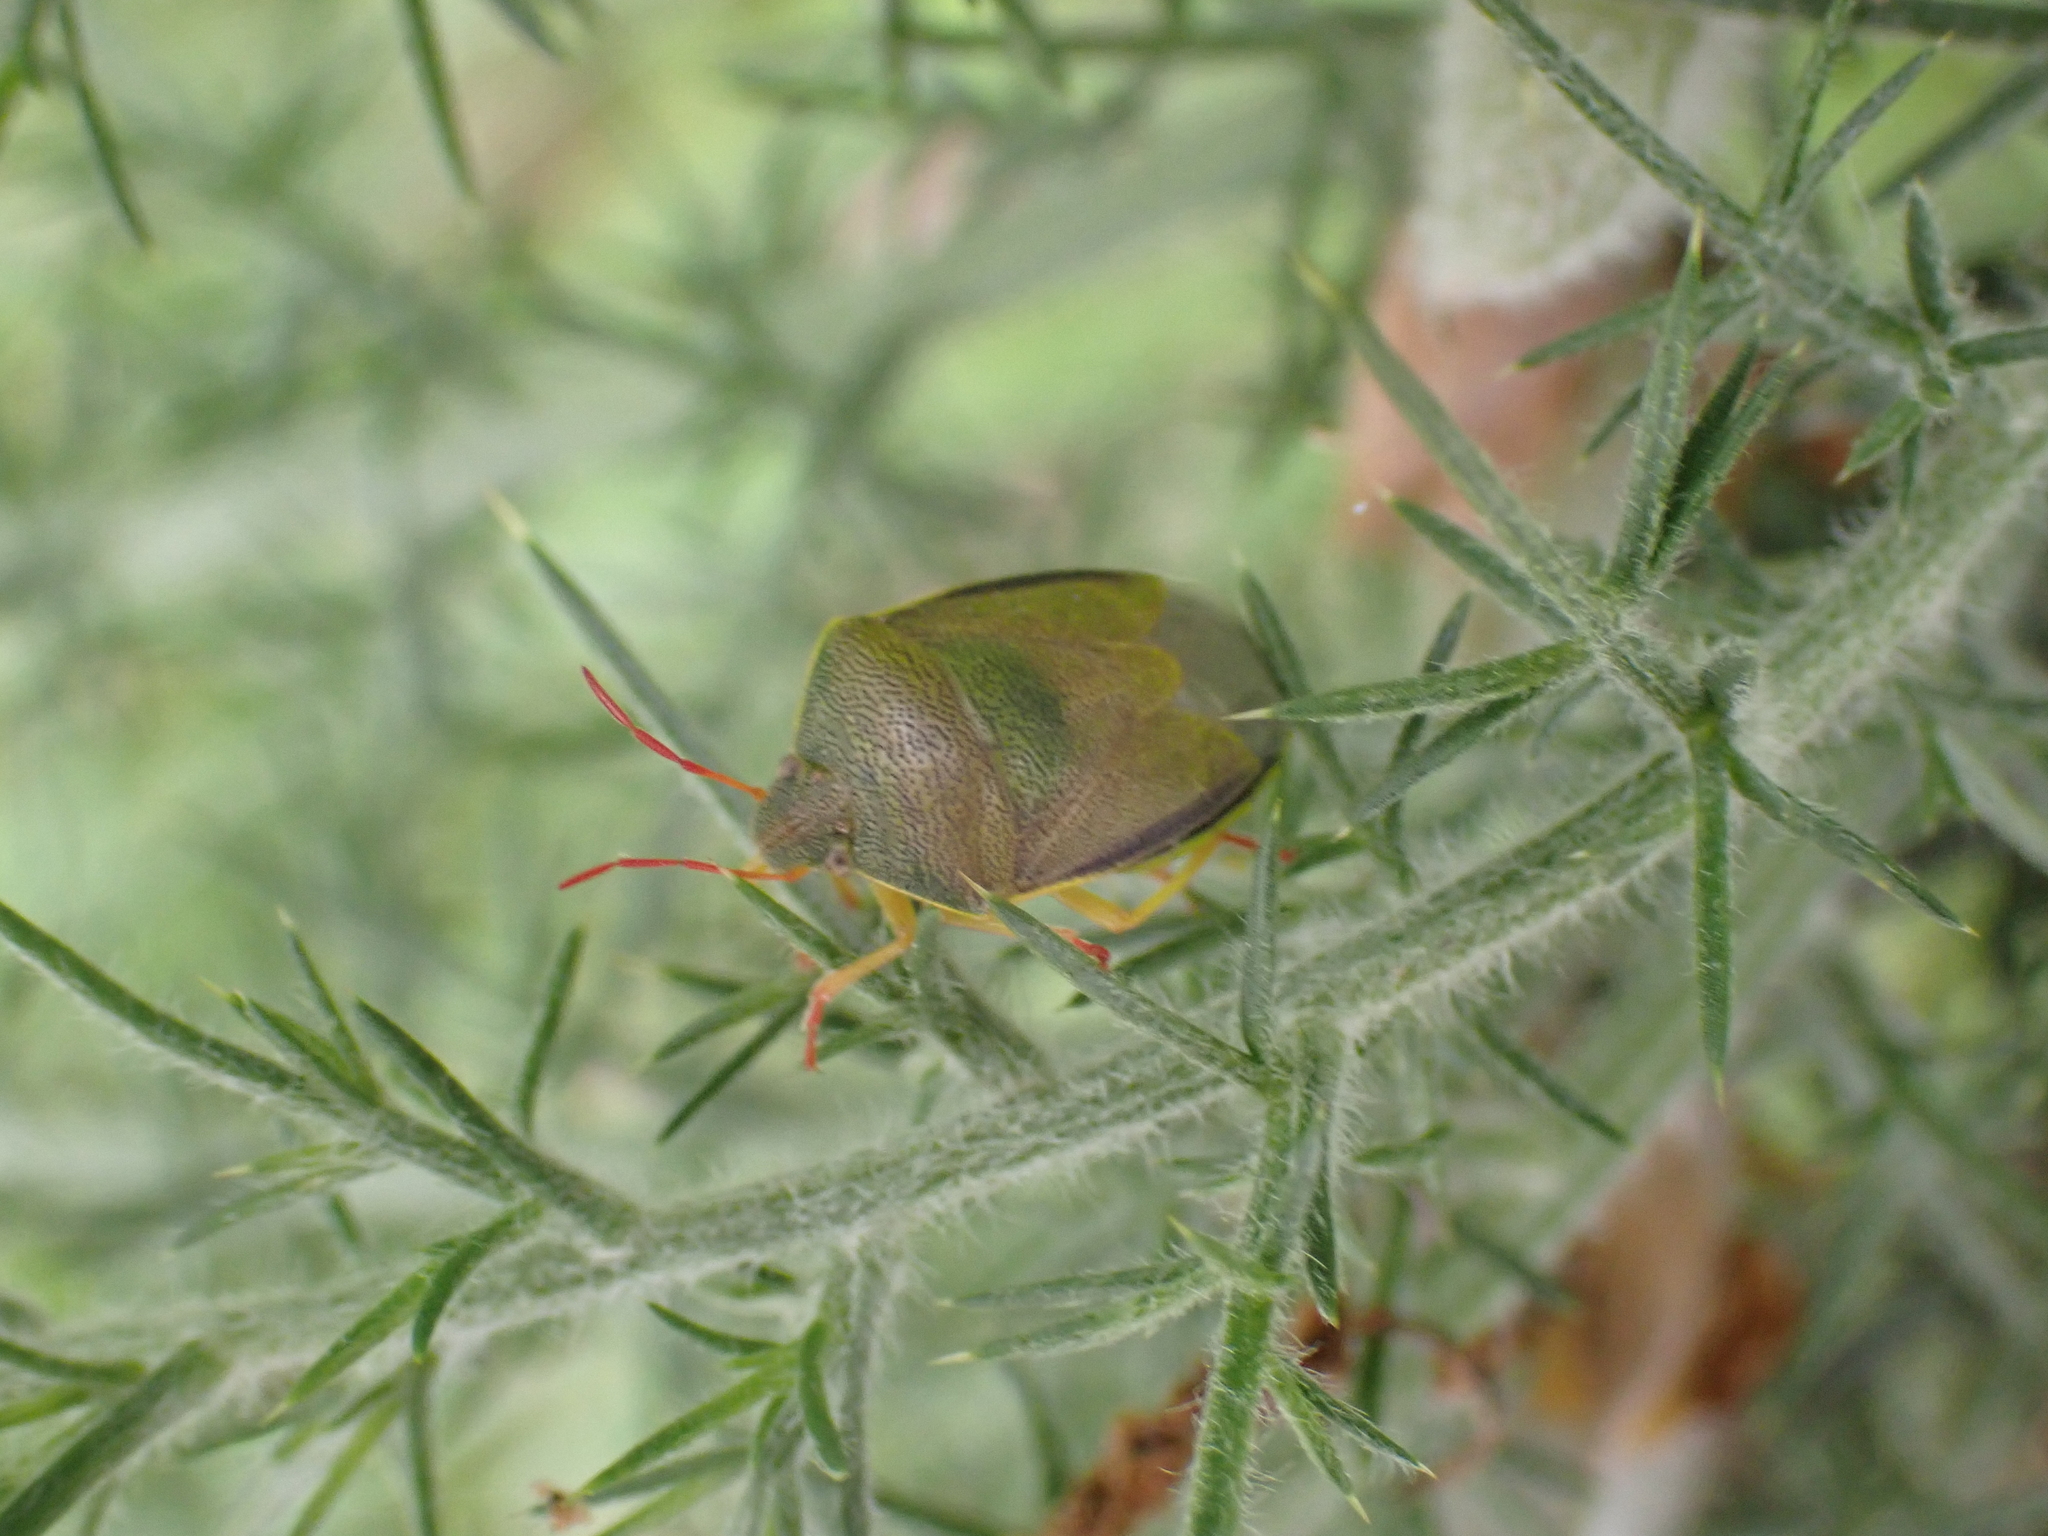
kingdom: Animalia
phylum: Arthropoda
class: Insecta
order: Hemiptera
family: Pentatomidae
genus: Piezodorus
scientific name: Piezodorus lituratus
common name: Stink bug
